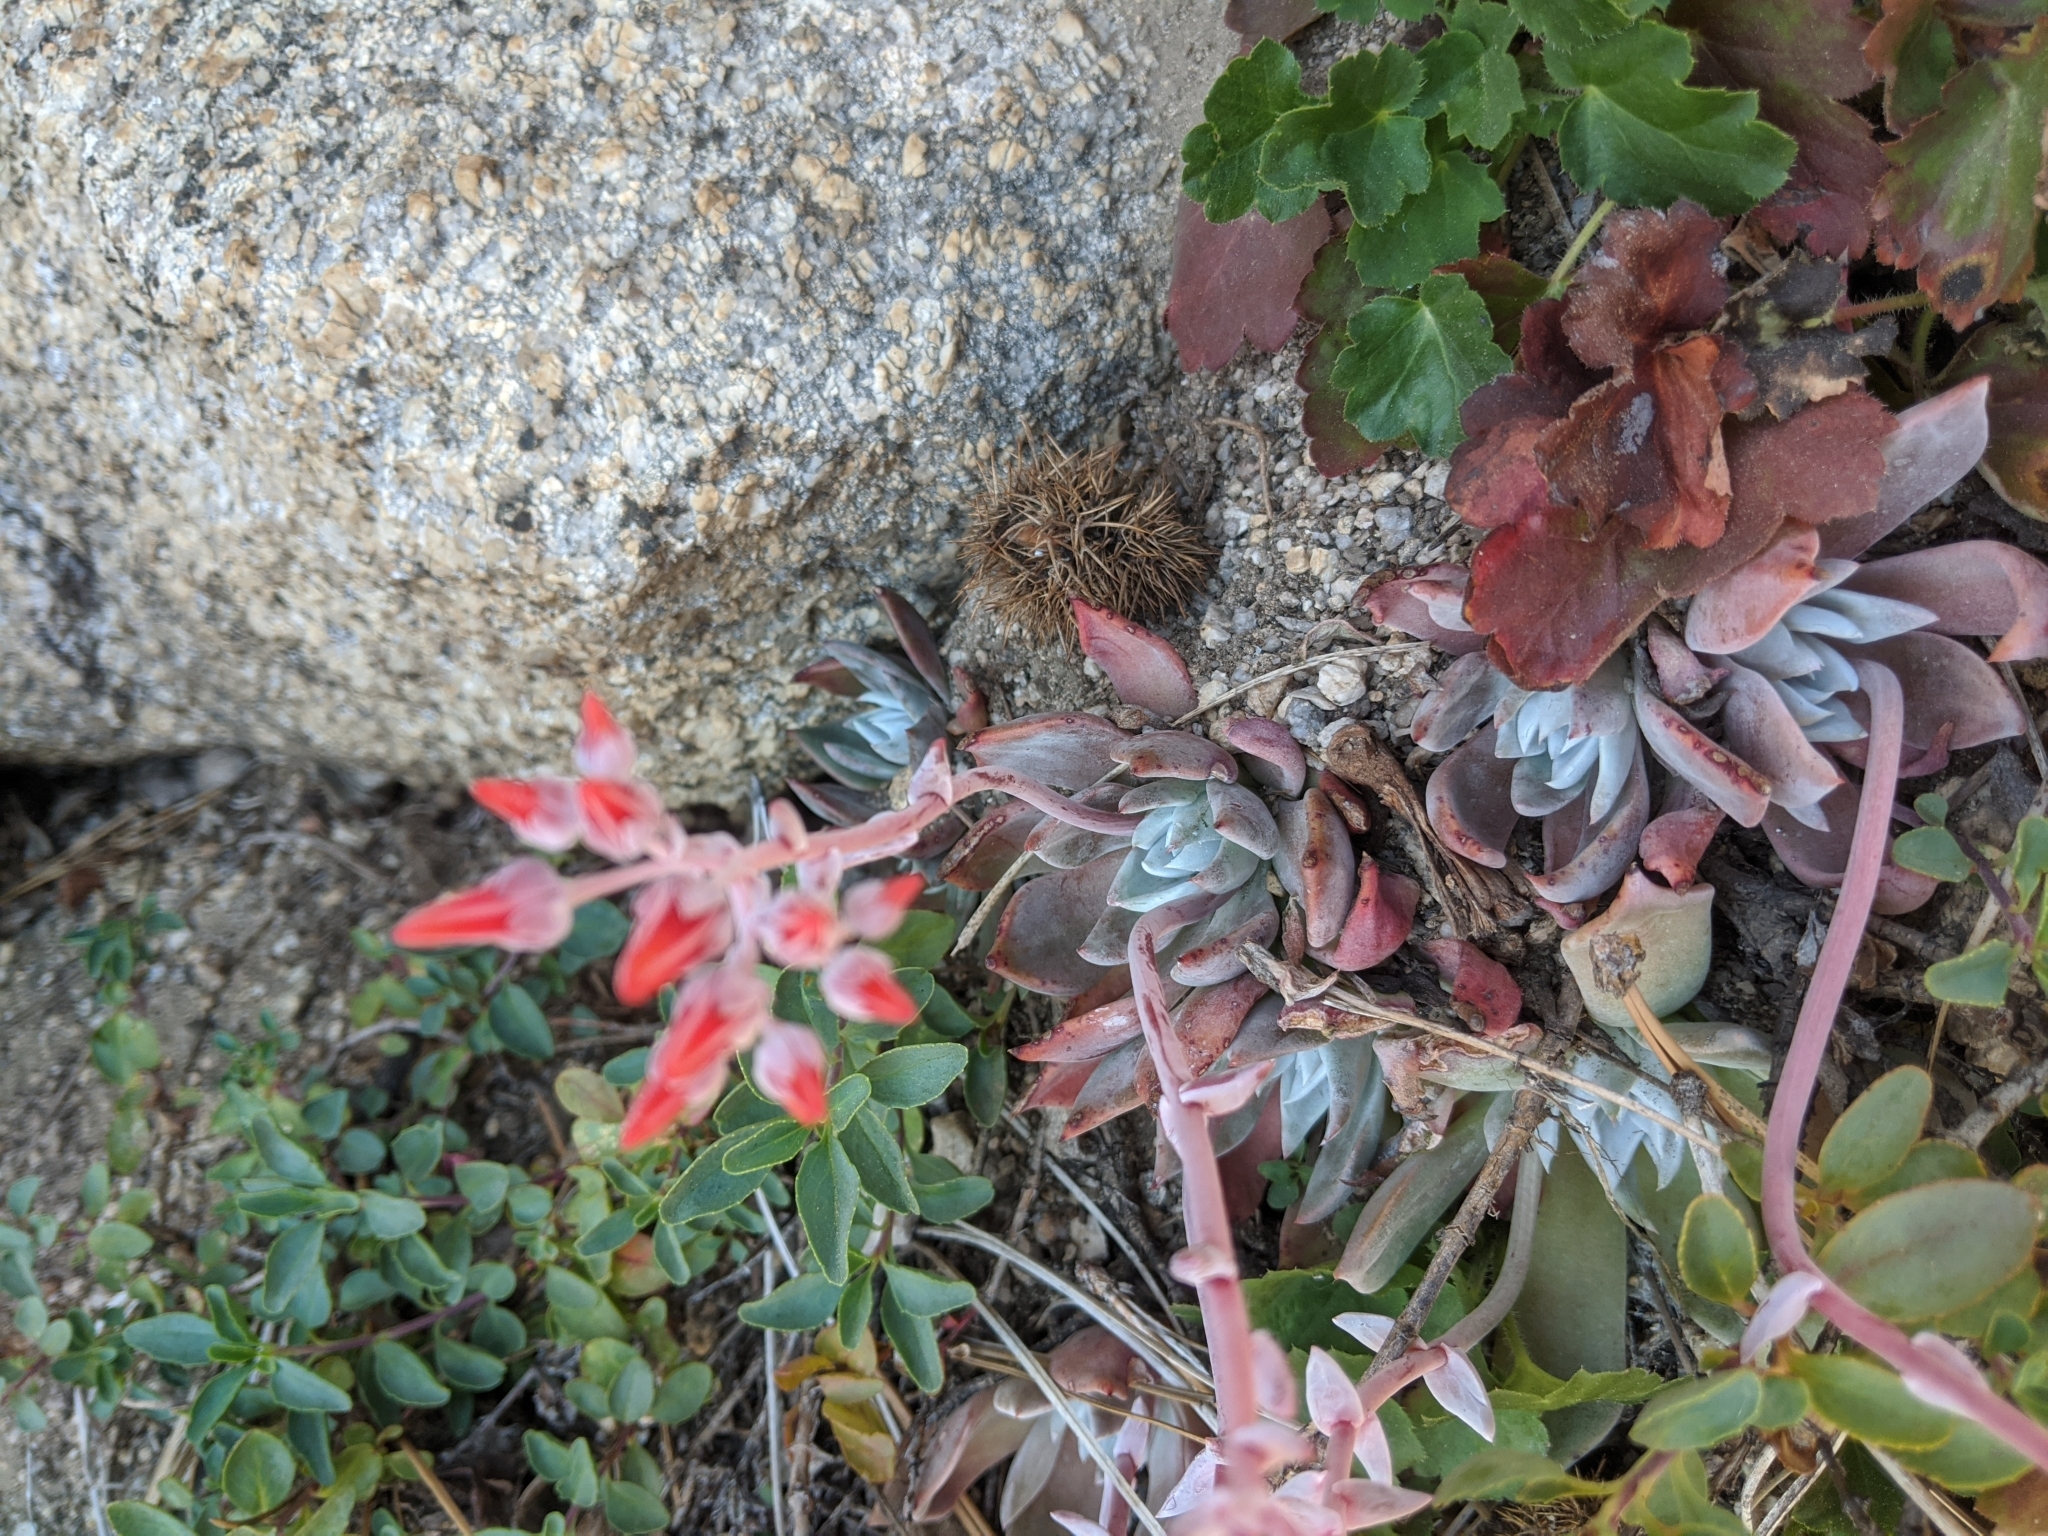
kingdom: Plantae
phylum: Tracheophyta
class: Magnoliopsida
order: Saxifragales
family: Crassulaceae
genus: Dudleya
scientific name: Dudleya cymosa
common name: Canyon dudleya
